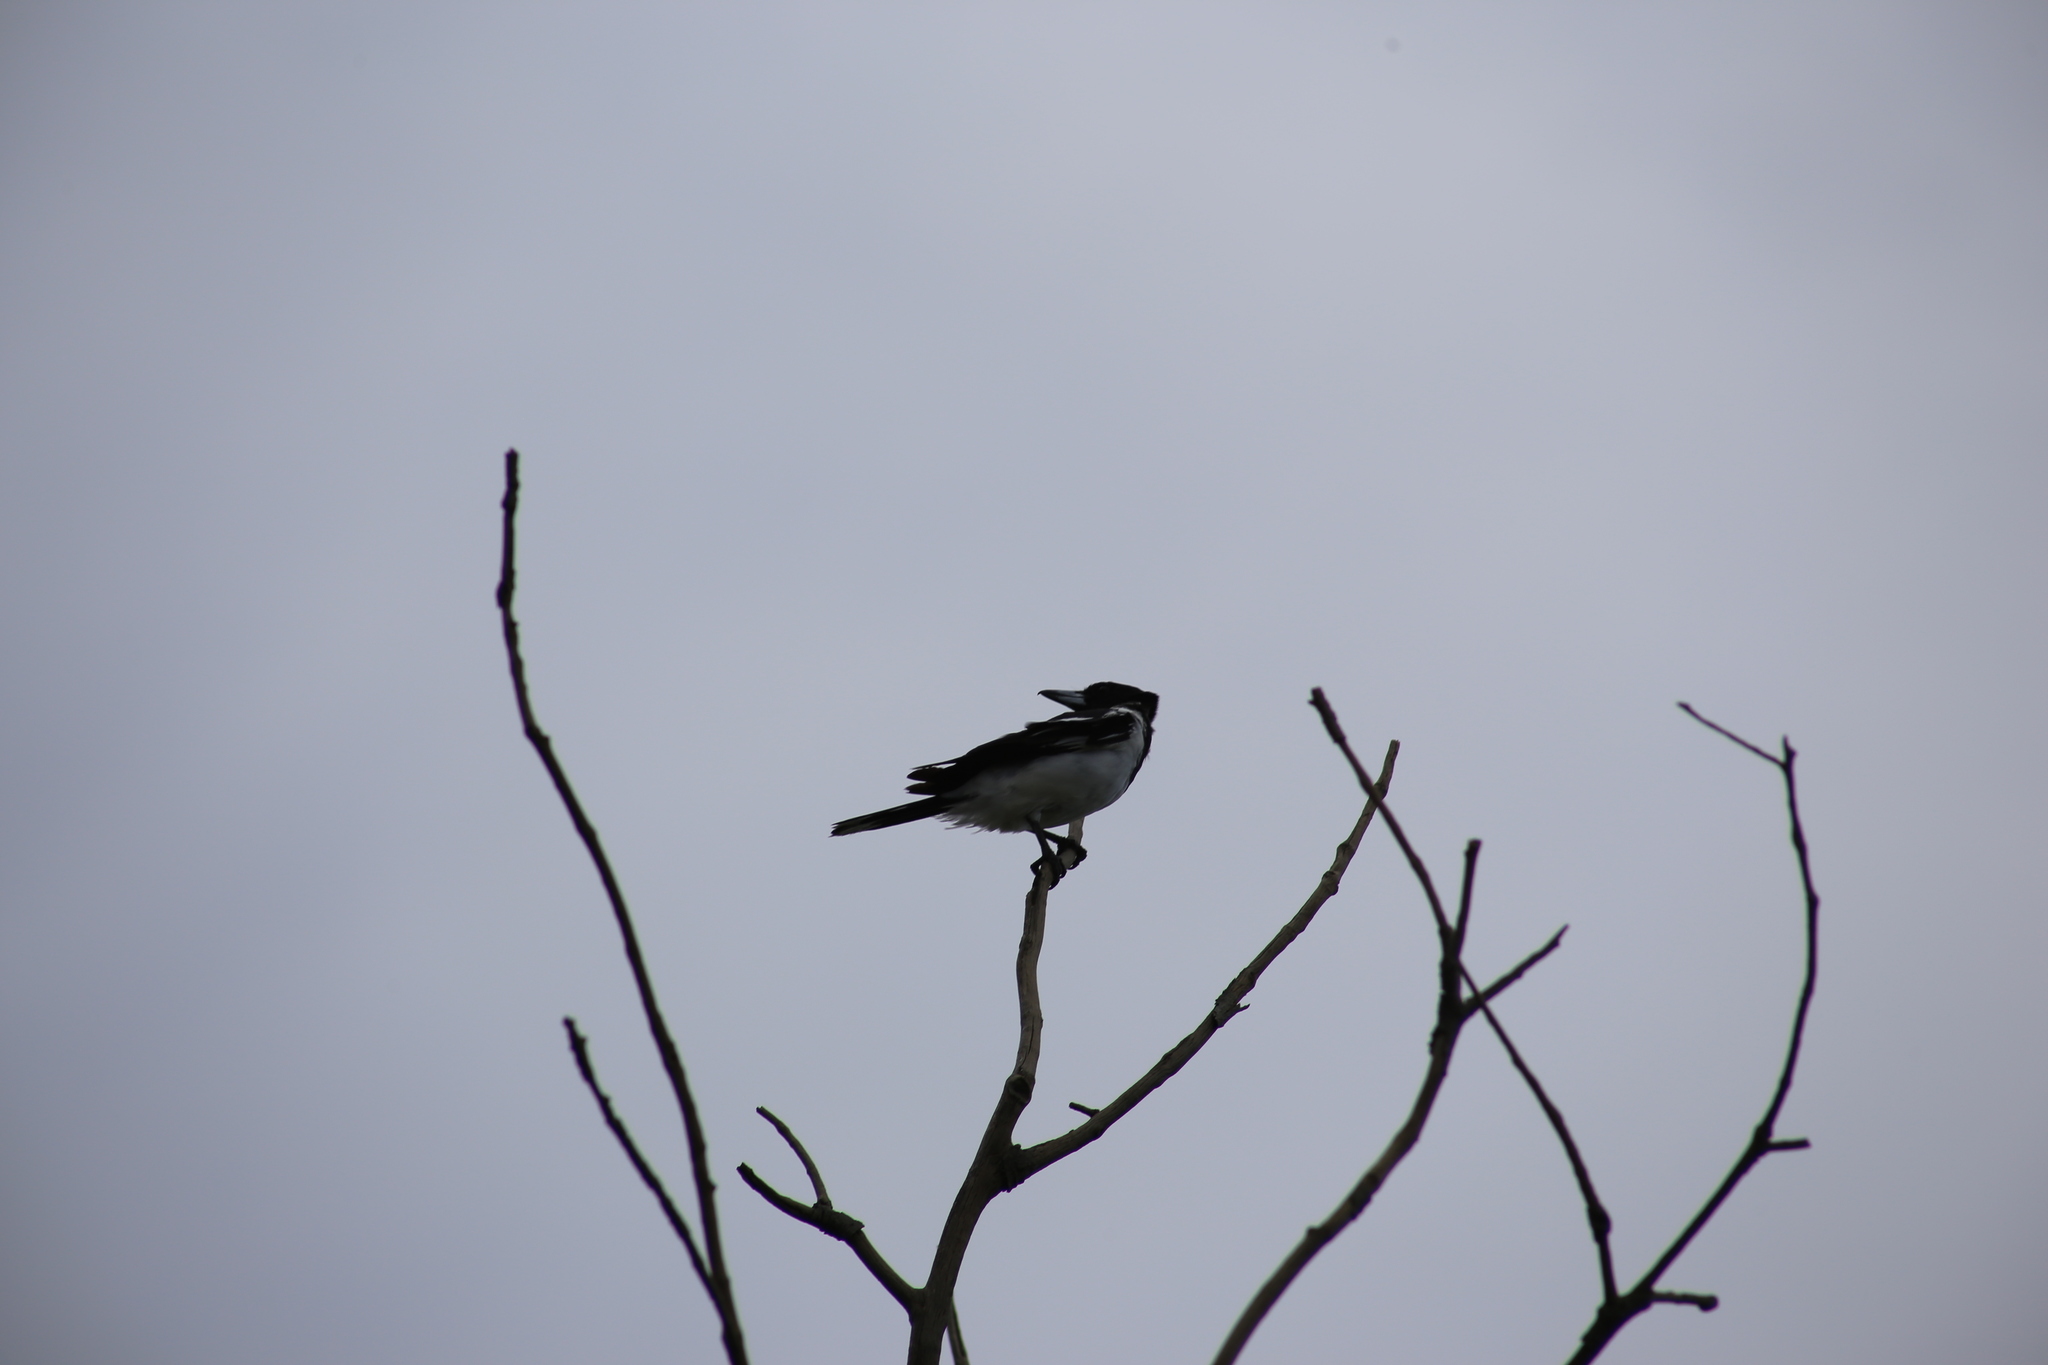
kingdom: Animalia
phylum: Chordata
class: Aves
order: Passeriformes
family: Cracticidae
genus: Cracticus
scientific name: Cracticus nigrogularis
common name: Pied butcherbird
